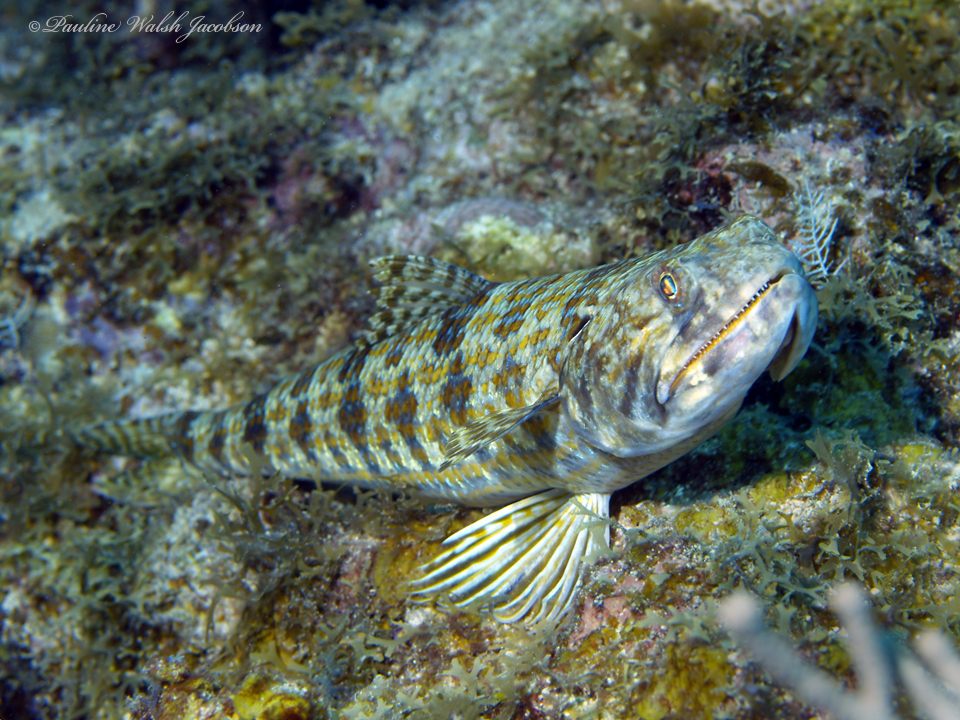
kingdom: Animalia
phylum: Chordata
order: Aulopiformes
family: Synodontidae
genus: Synodus
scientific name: Synodus intermedius
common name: Sand diver
